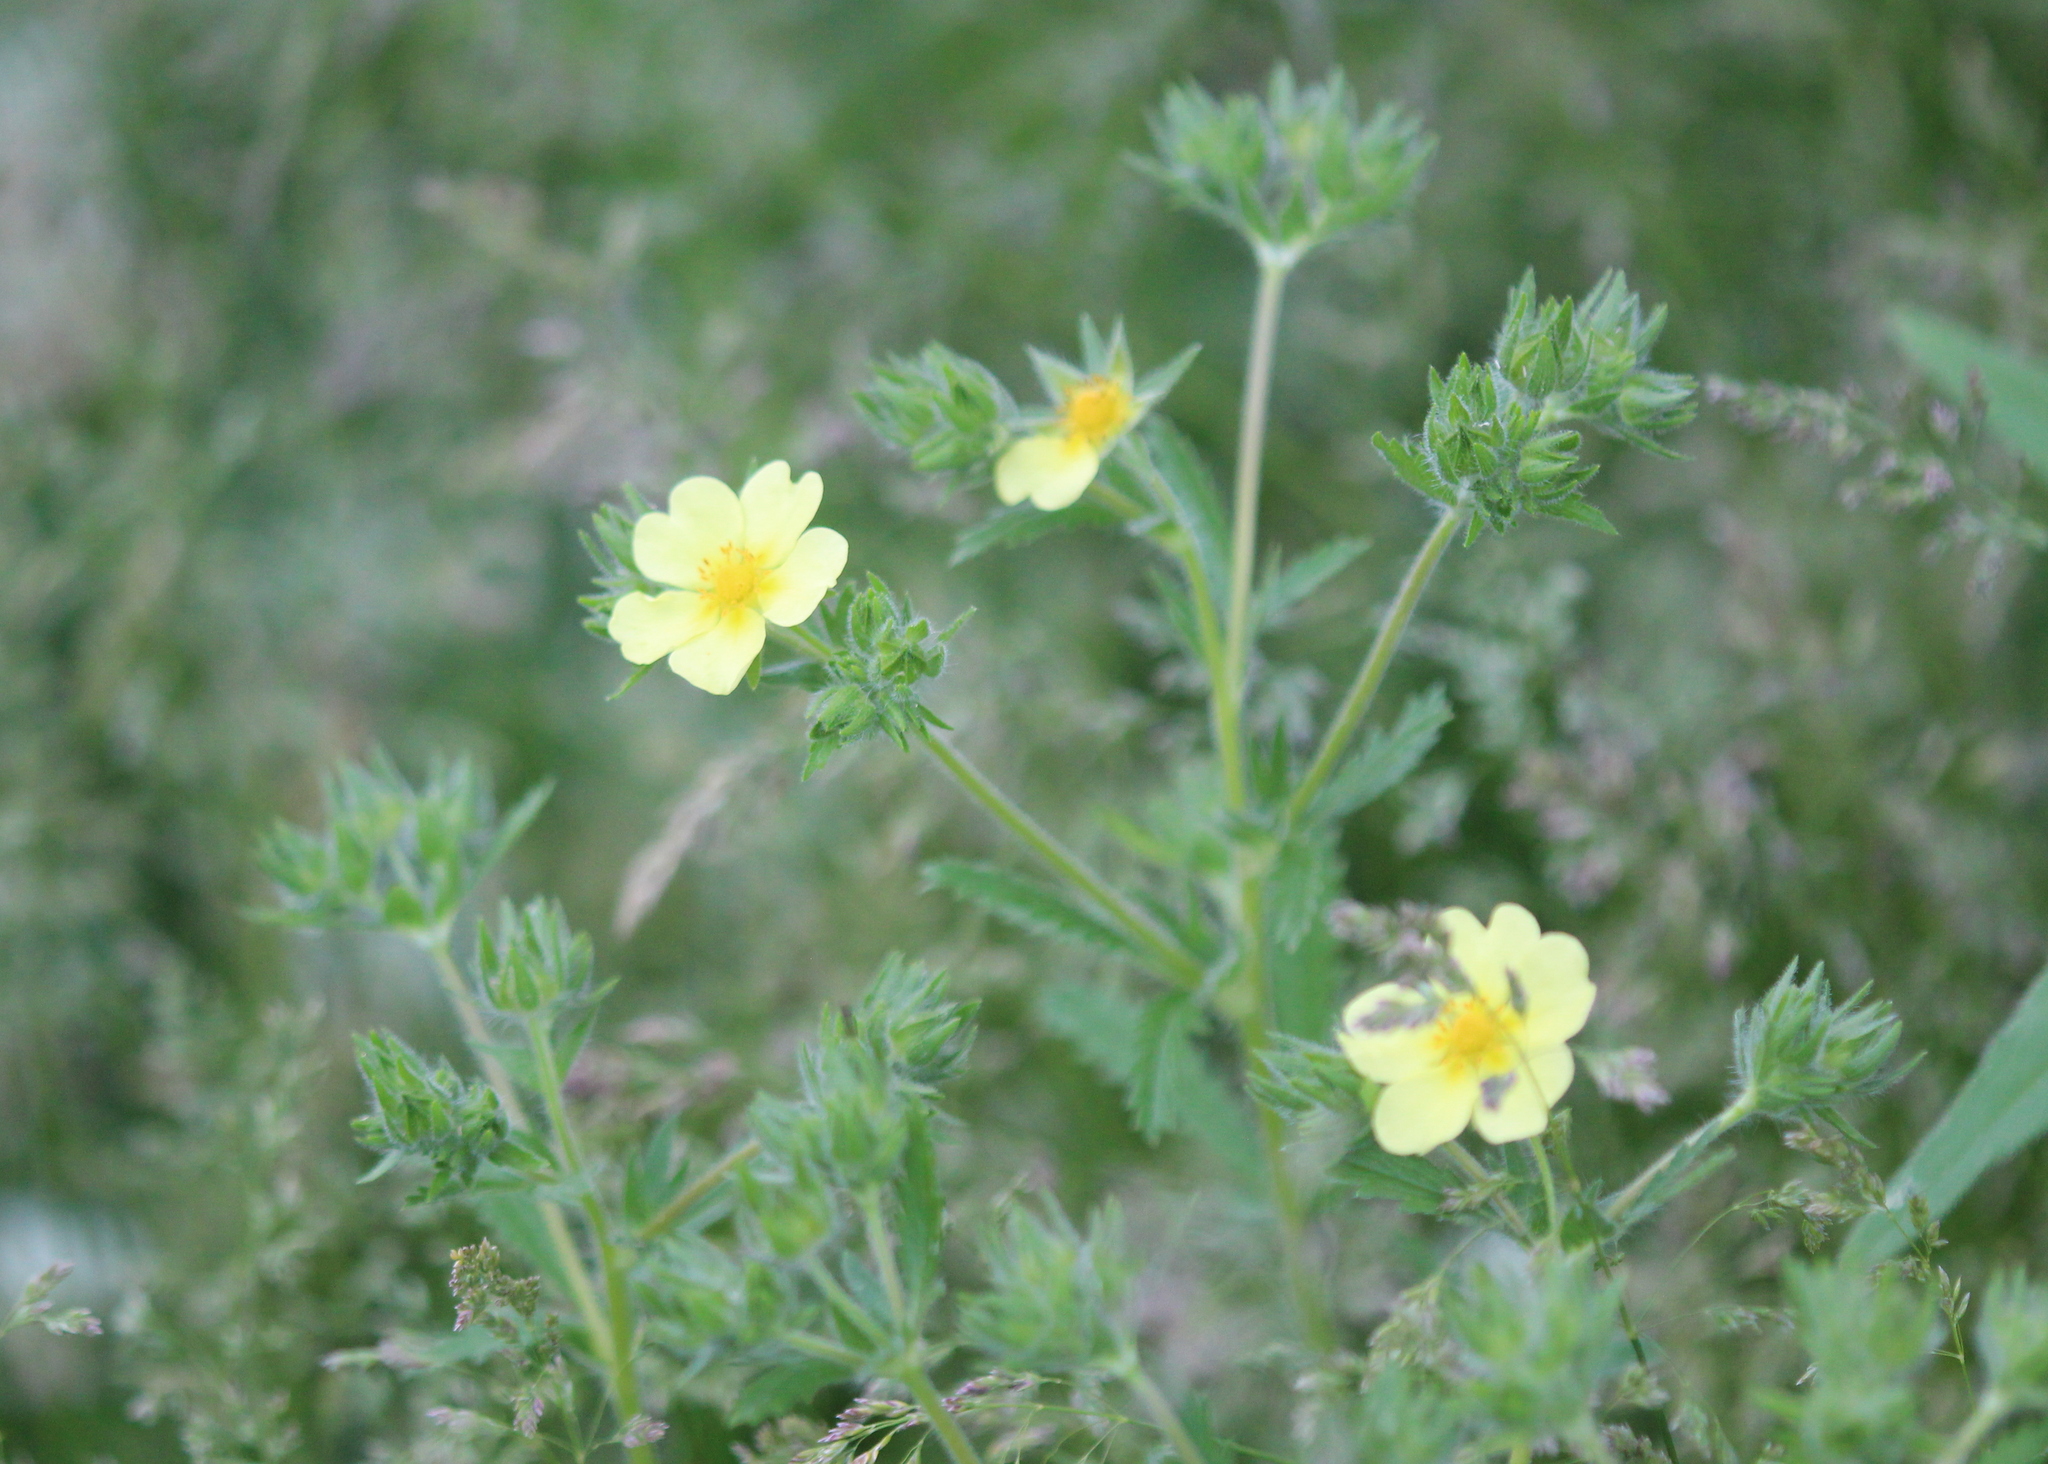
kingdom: Plantae
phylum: Tracheophyta
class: Magnoliopsida
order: Rosales
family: Rosaceae
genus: Potentilla
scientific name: Potentilla recta
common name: Sulphur cinquefoil
